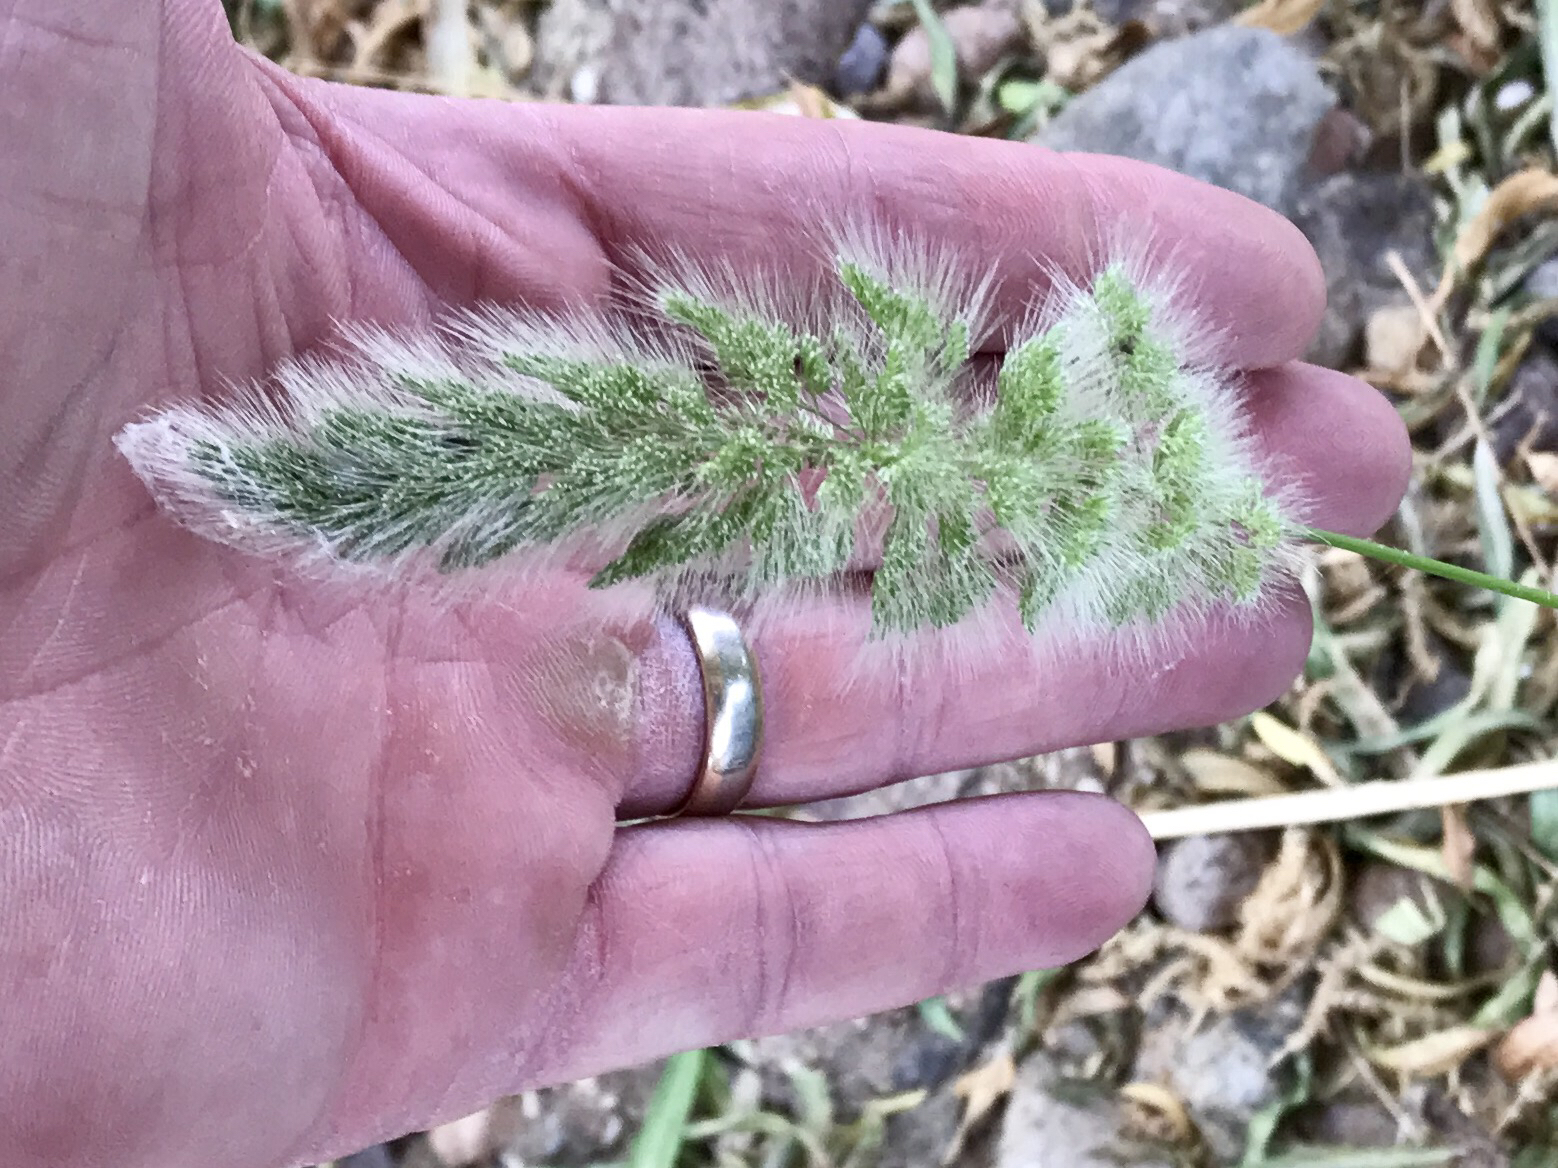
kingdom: Plantae
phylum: Tracheophyta
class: Liliopsida
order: Poales
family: Poaceae
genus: Polypogon
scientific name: Polypogon monspeliensis
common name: Annual rabbitsfoot grass
